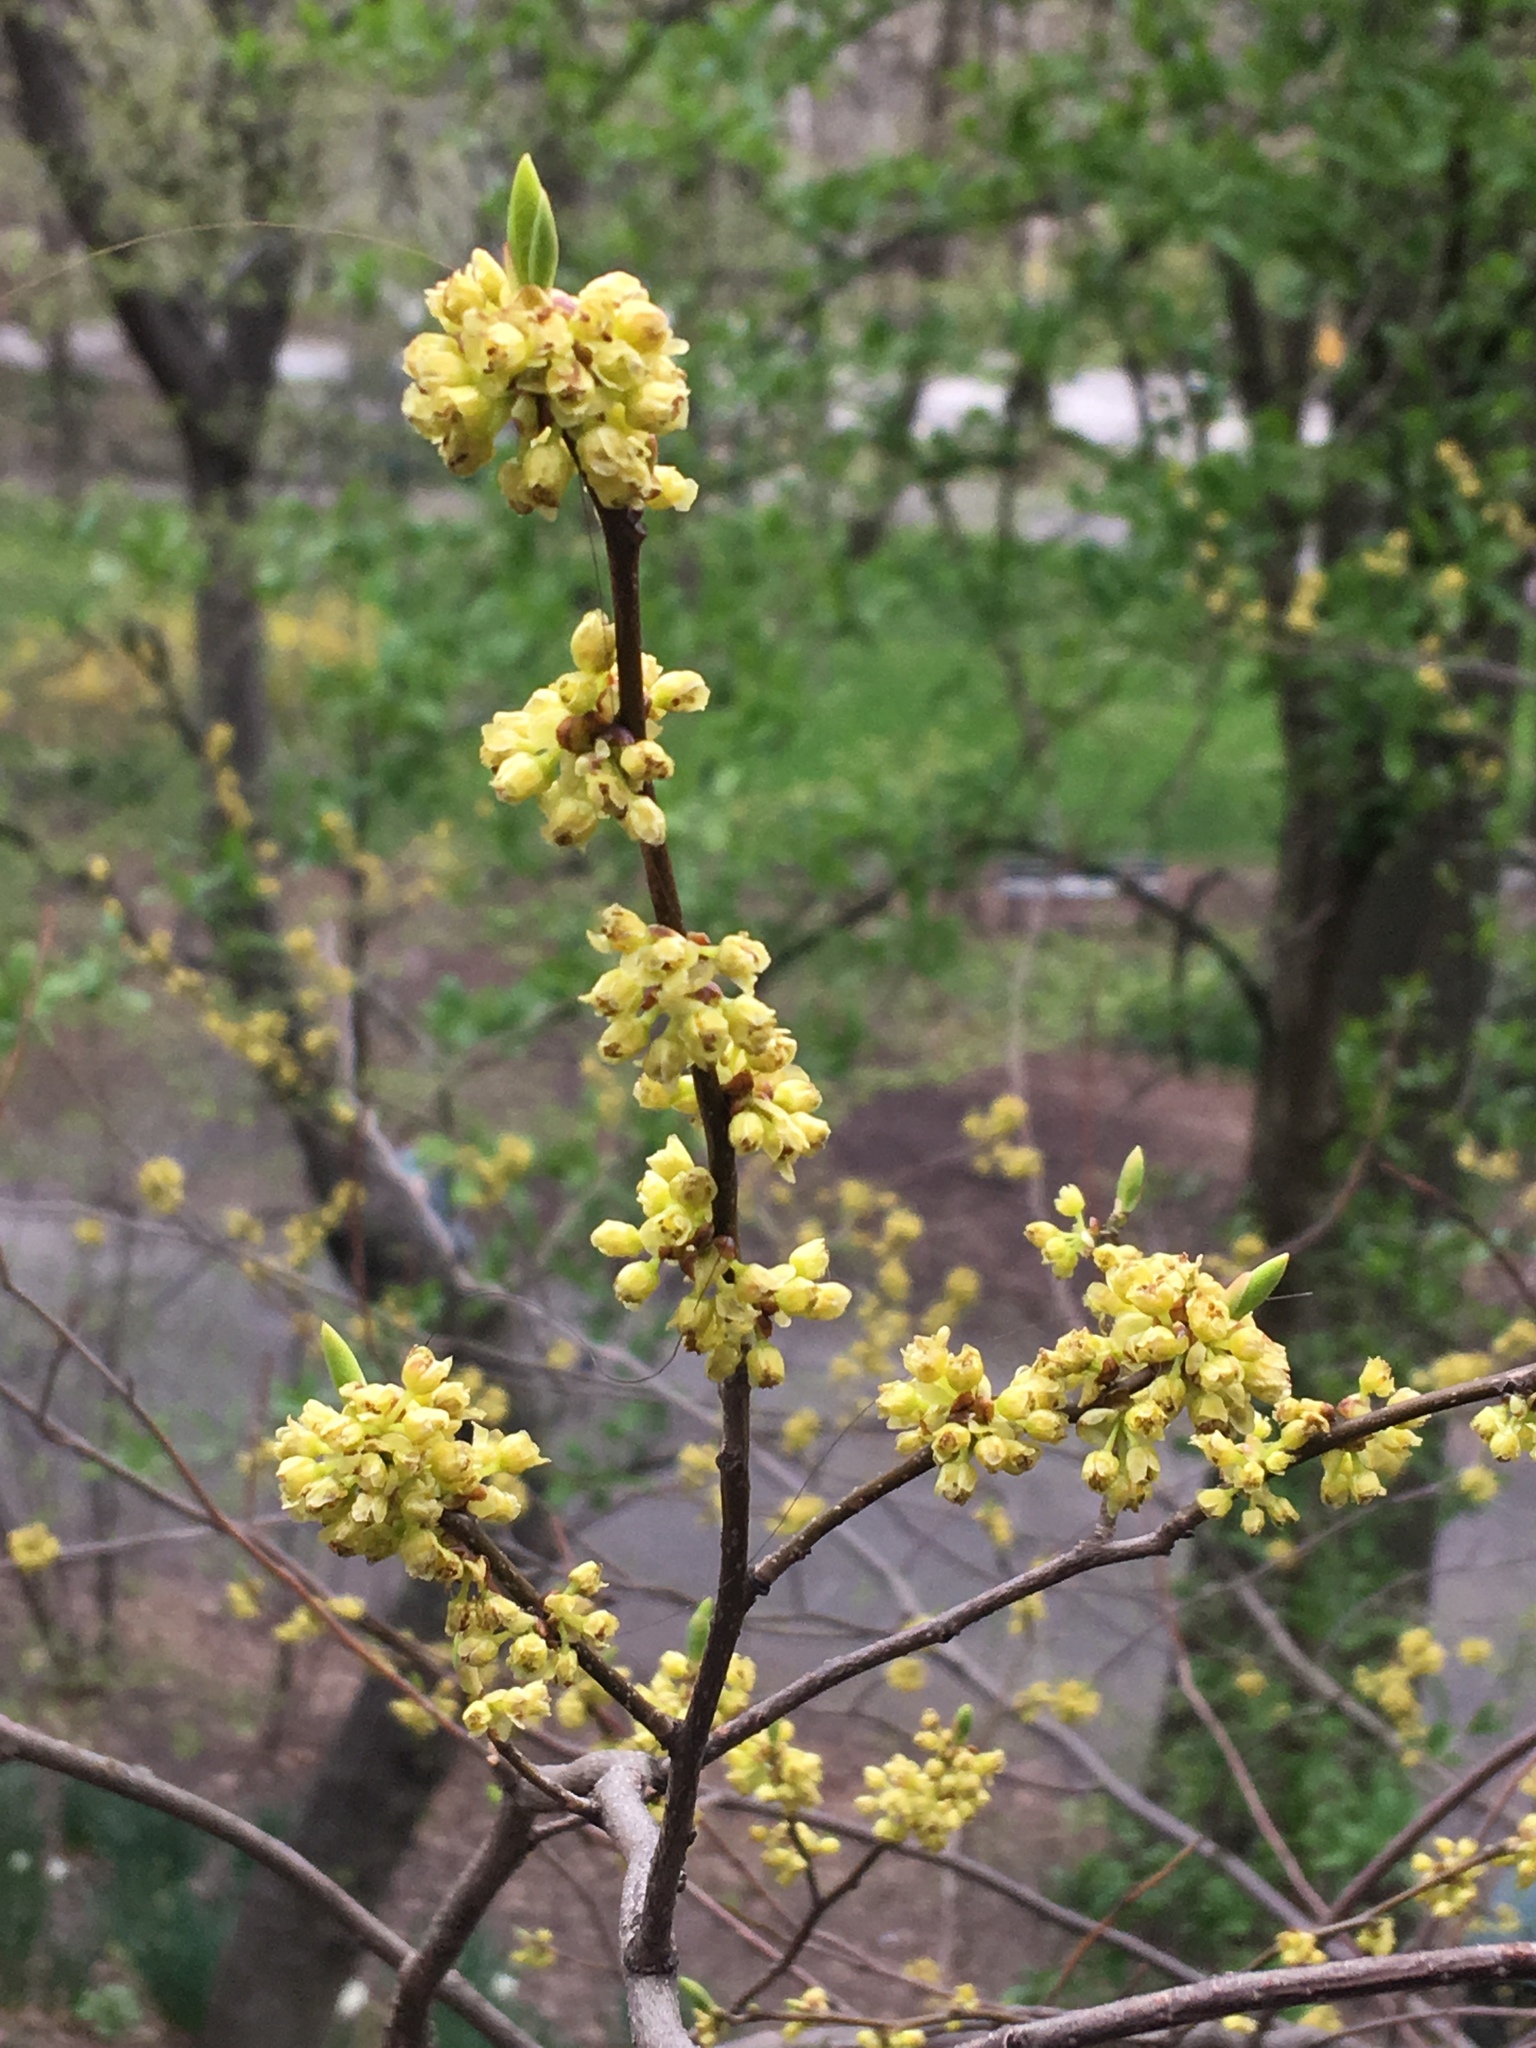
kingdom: Plantae
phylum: Tracheophyta
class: Magnoliopsida
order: Laurales
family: Lauraceae
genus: Lindera
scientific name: Lindera benzoin
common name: Spicebush
